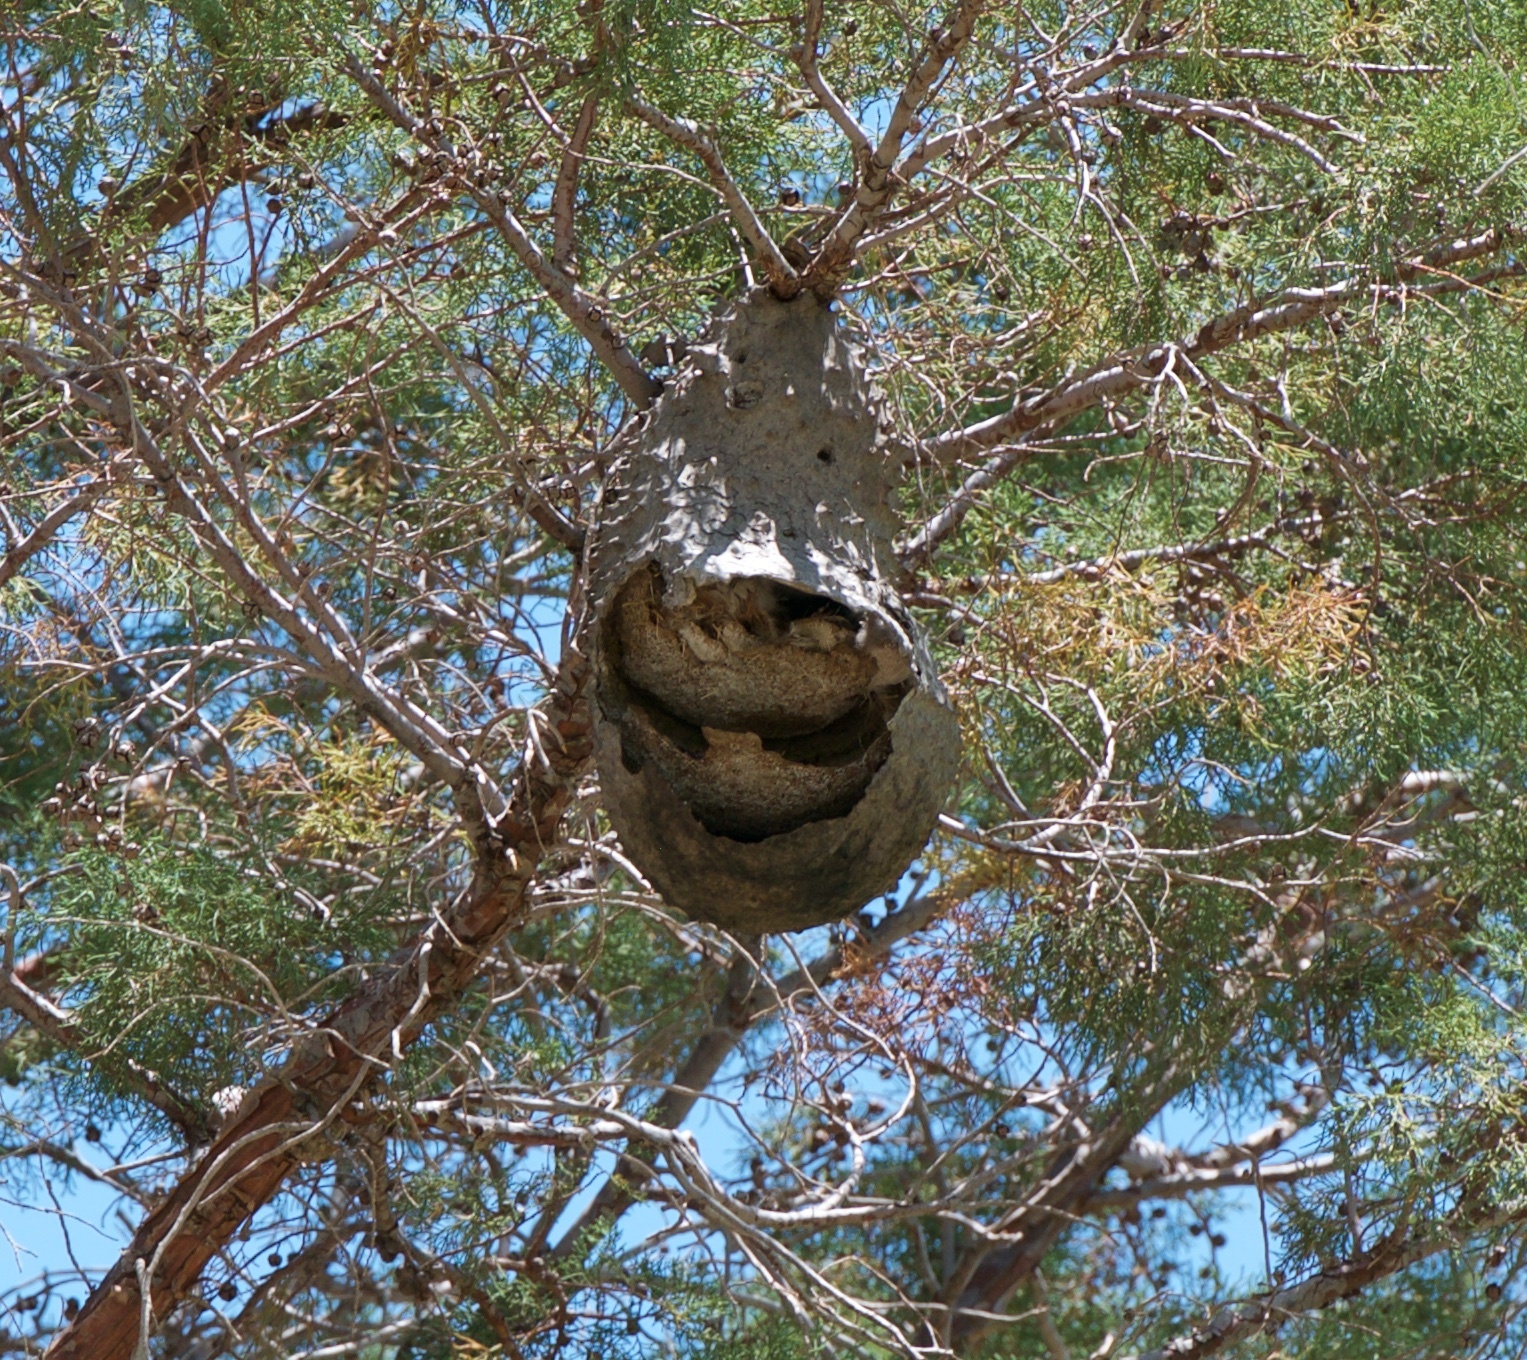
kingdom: Animalia
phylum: Arthropoda
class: Insecta
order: Hymenoptera
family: Eumenidae
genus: Polybia
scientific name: Polybia scutellaris
